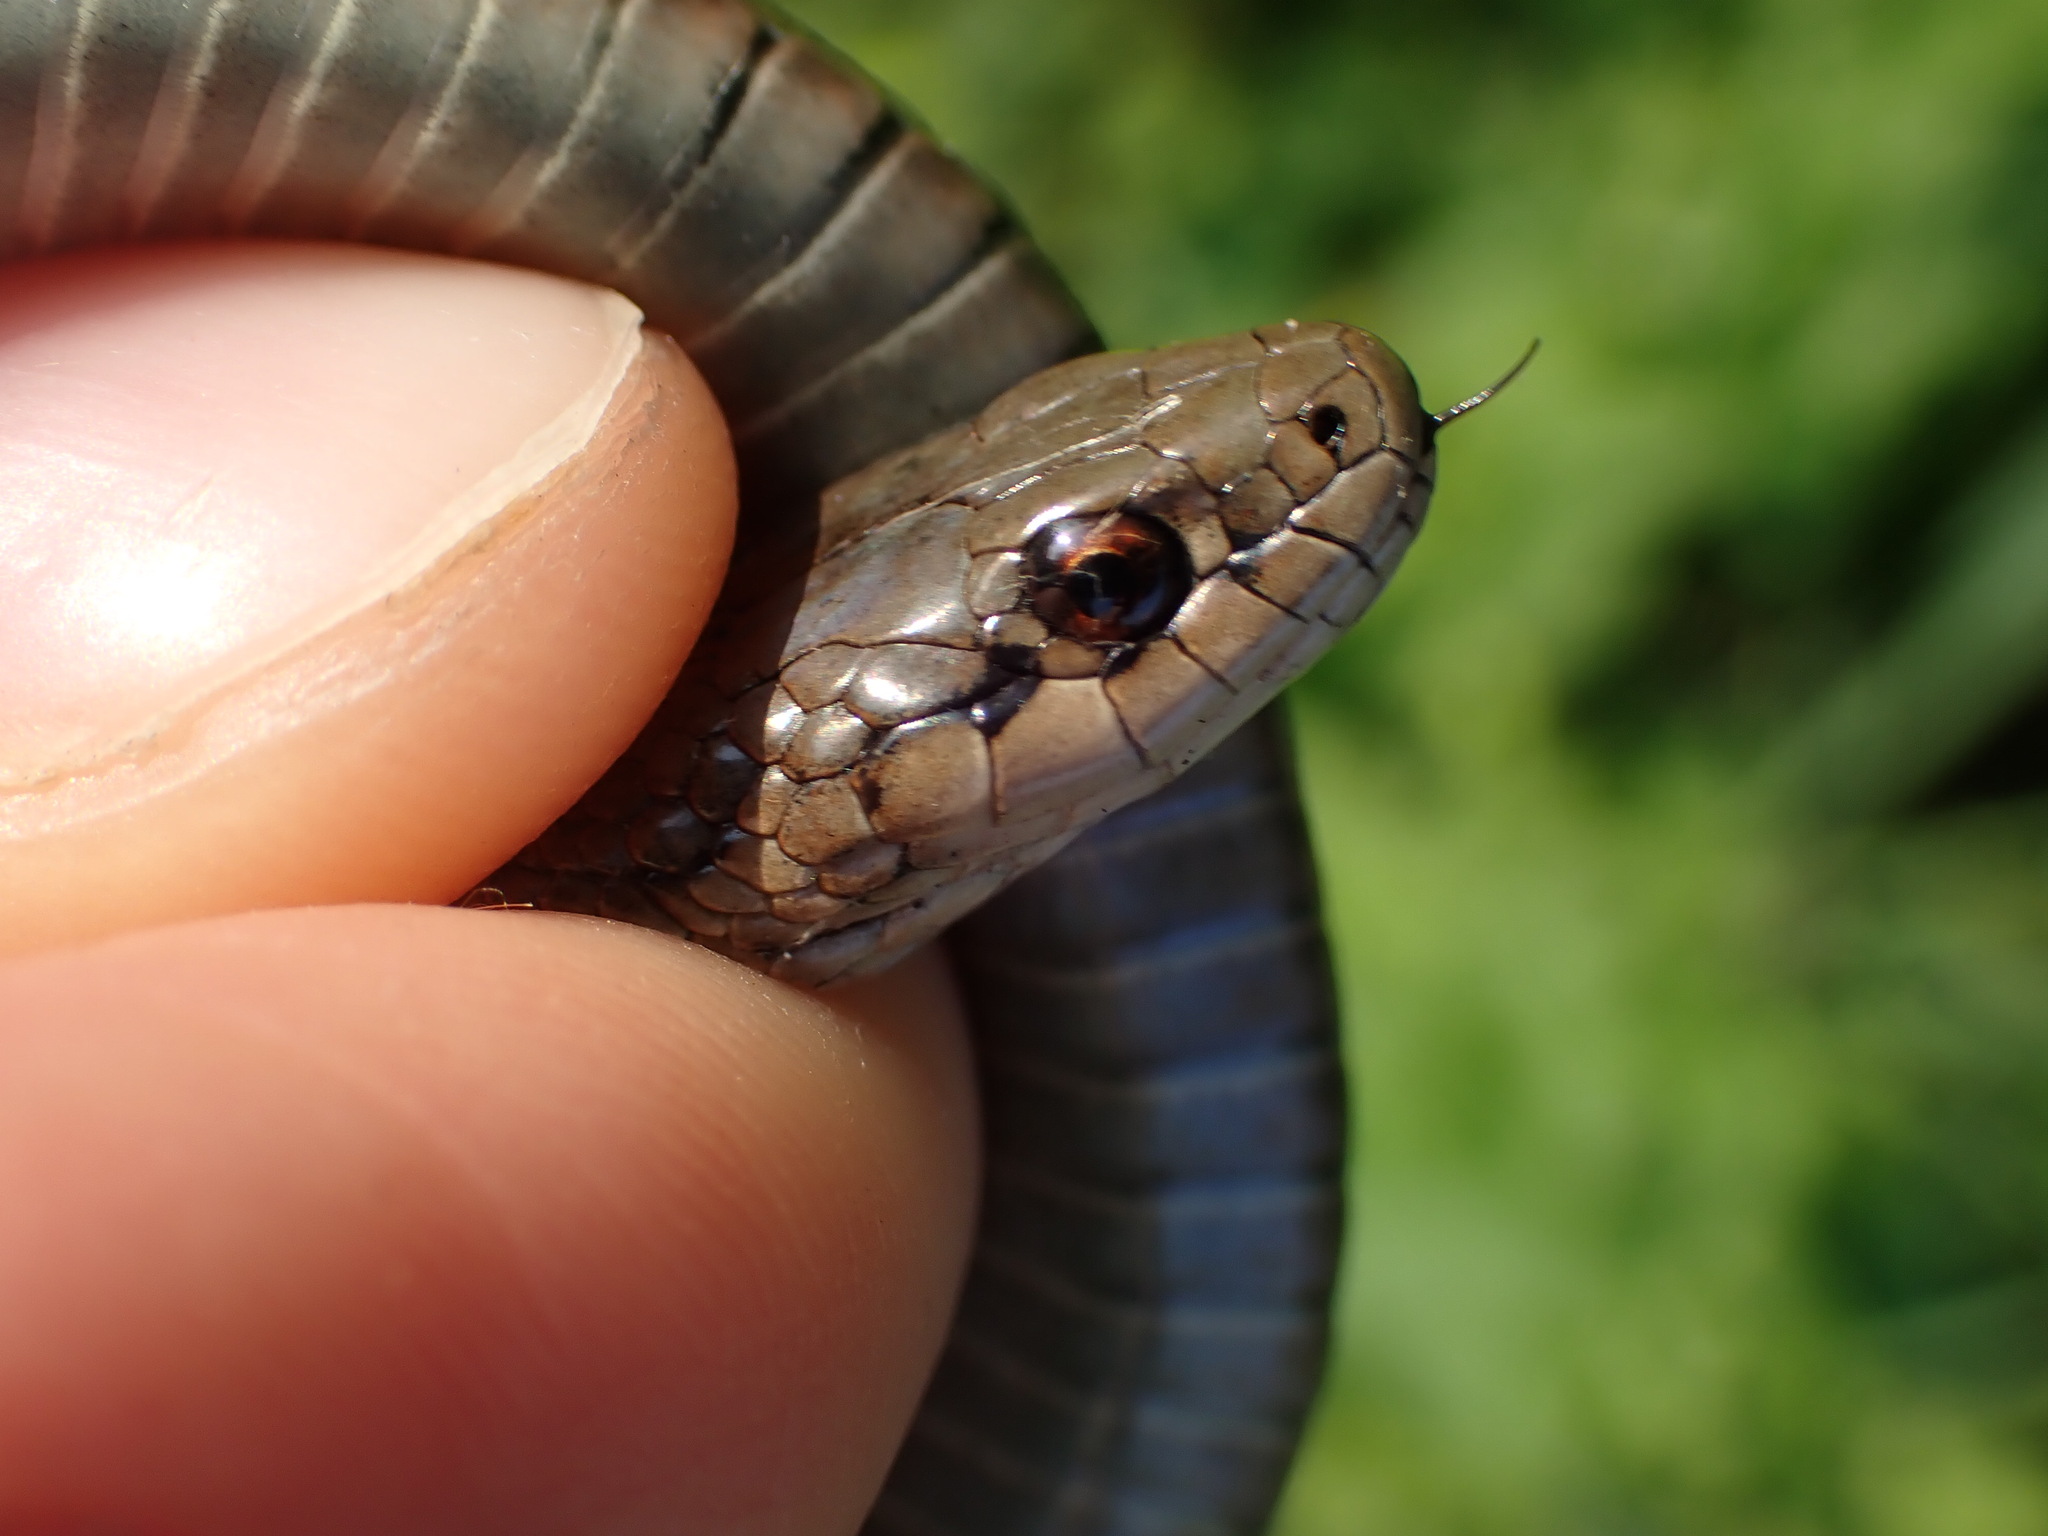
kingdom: Animalia
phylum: Chordata
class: Squamata
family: Colubridae
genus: Thamnophis
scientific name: Thamnophis ordinoides
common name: Northwestern garter snake
